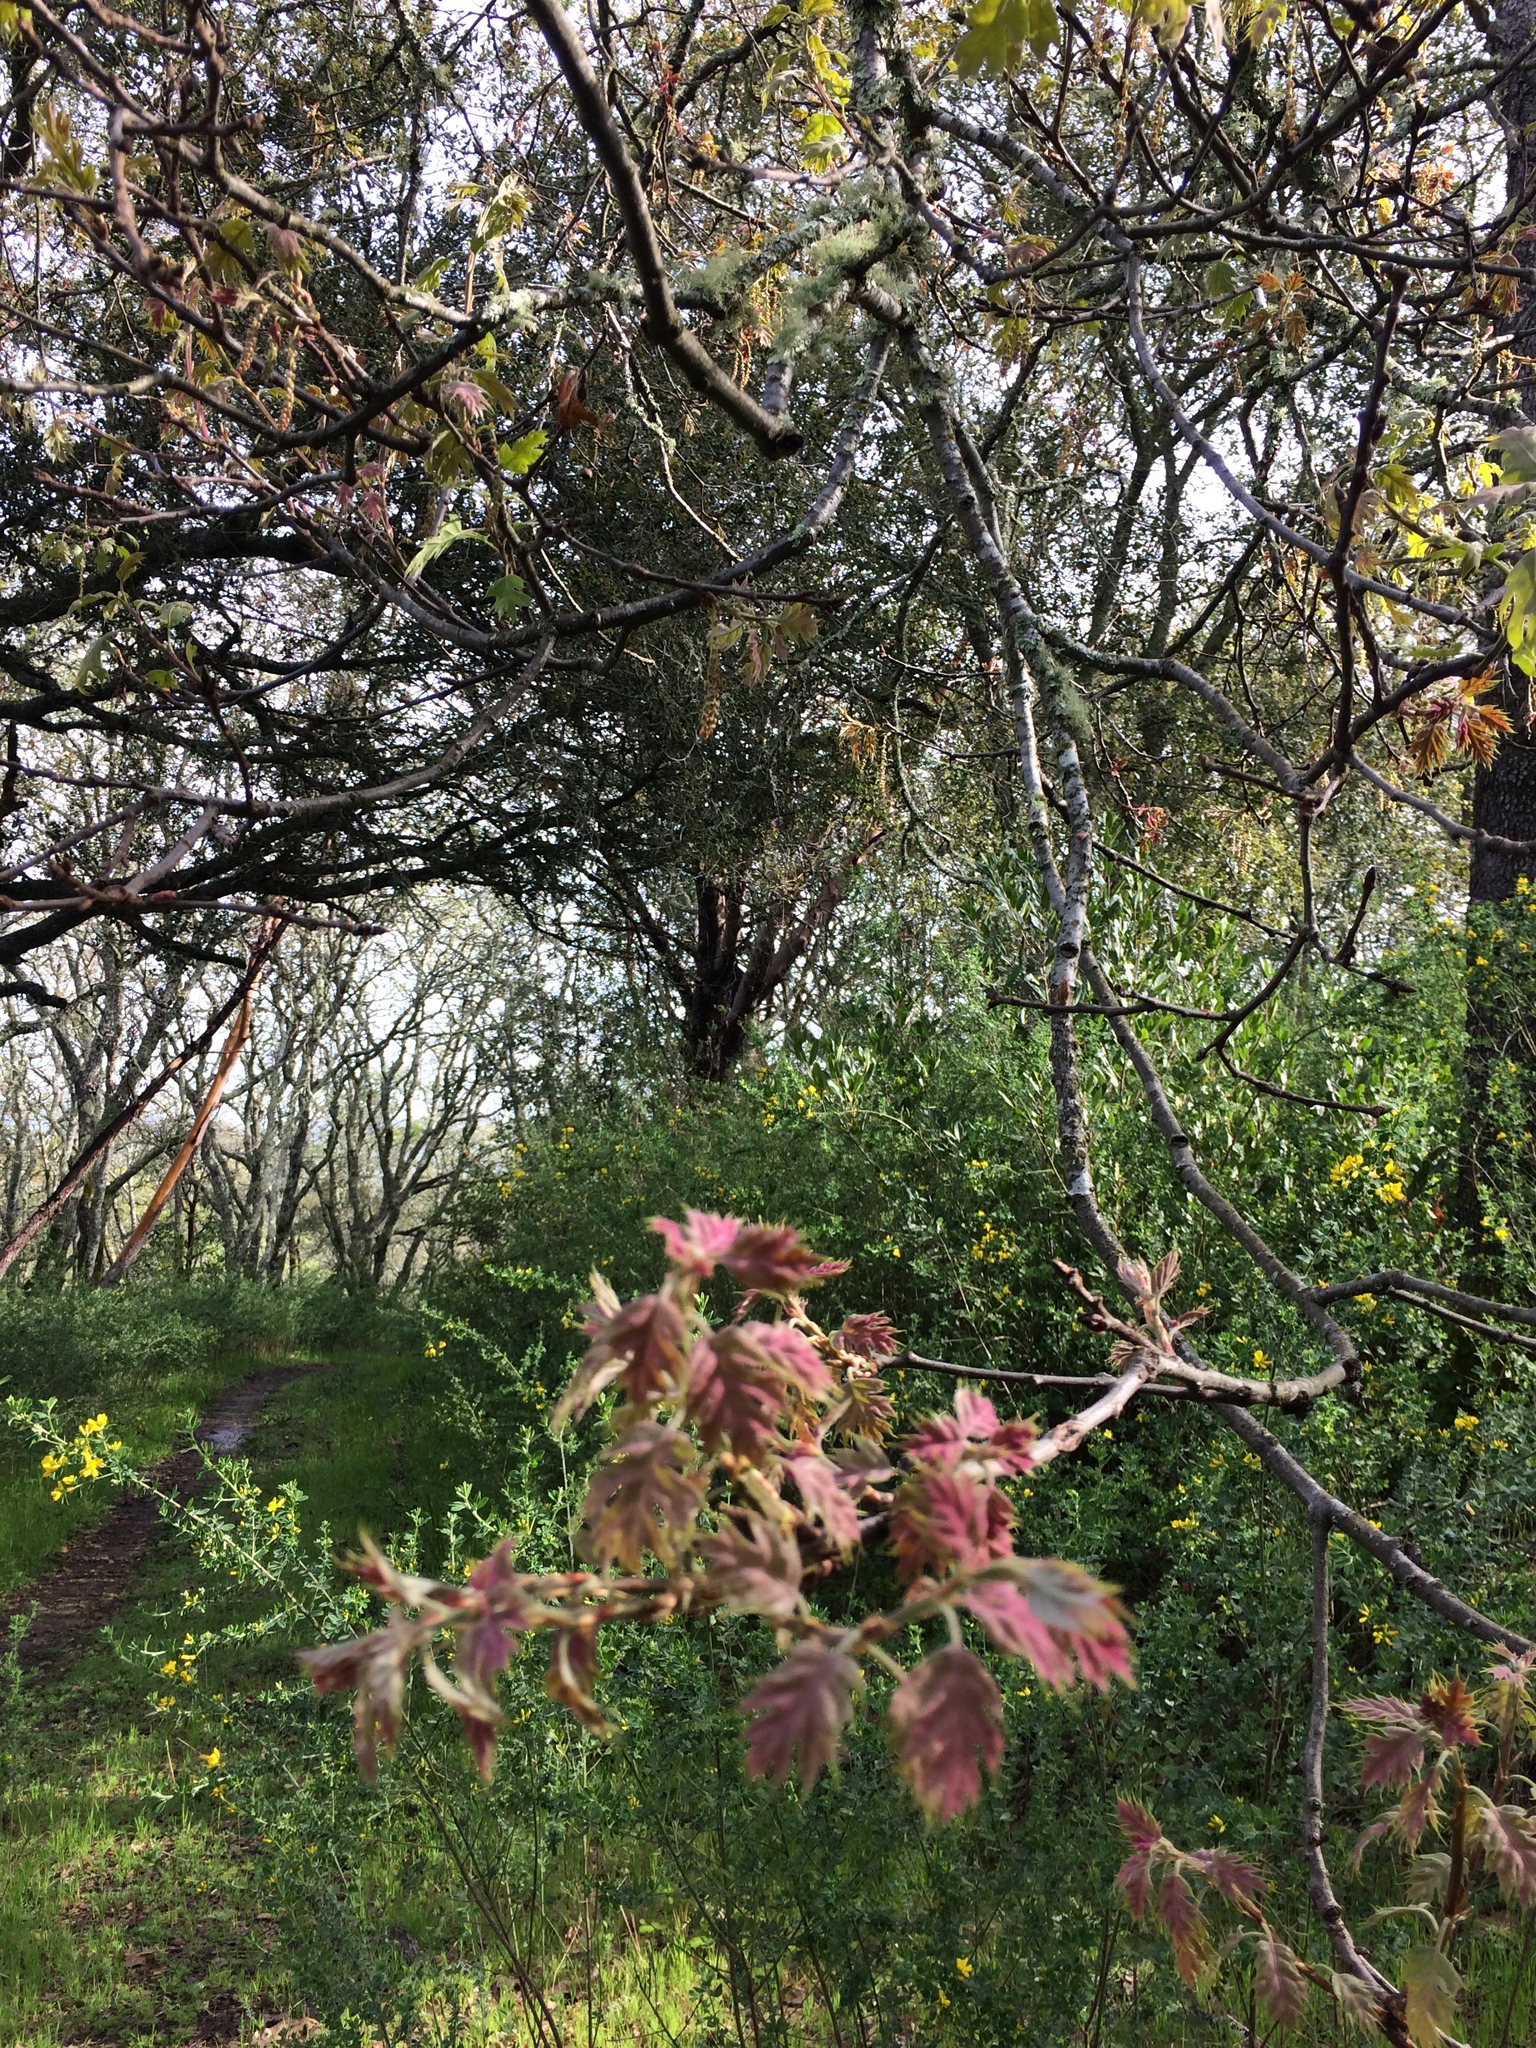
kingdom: Plantae
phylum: Tracheophyta
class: Magnoliopsida
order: Fagales
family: Fagaceae
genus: Quercus
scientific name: Quercus kelloggii
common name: California black oak
